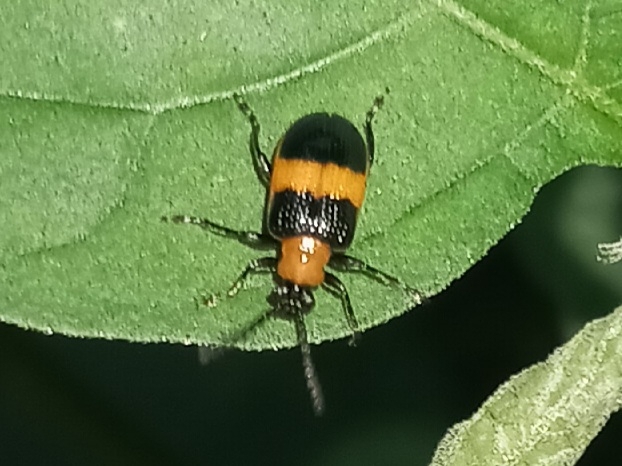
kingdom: Animalia
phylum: Arthropoda
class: Insecta
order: Coleoptera
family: Chrysomelidae
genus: Lema
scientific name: Lema solani
